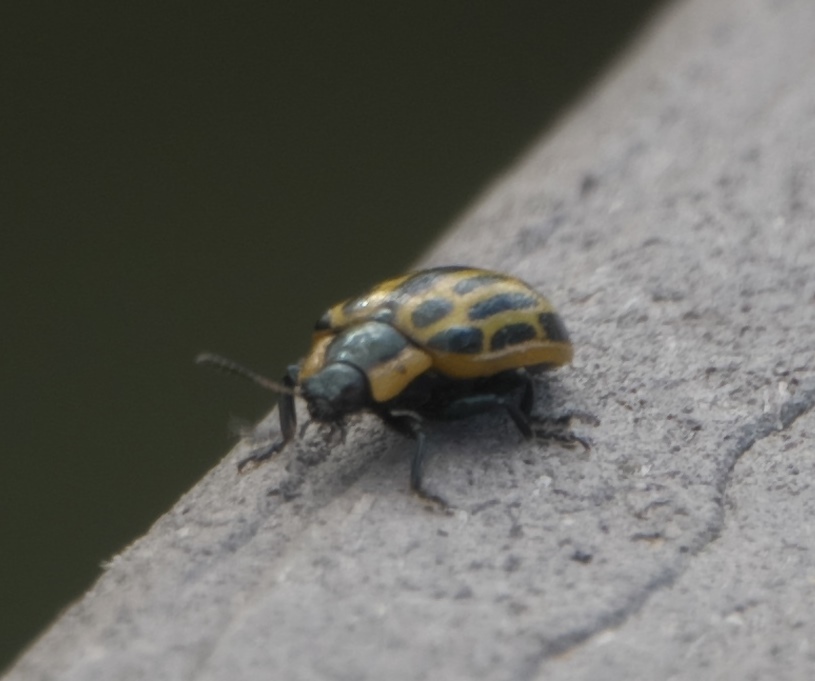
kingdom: Animalia
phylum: Arthropoda
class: Insecta
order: Coleoptera
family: Chrysomelidae
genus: Aethiopocassis
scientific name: Aethiopocassis scripta
